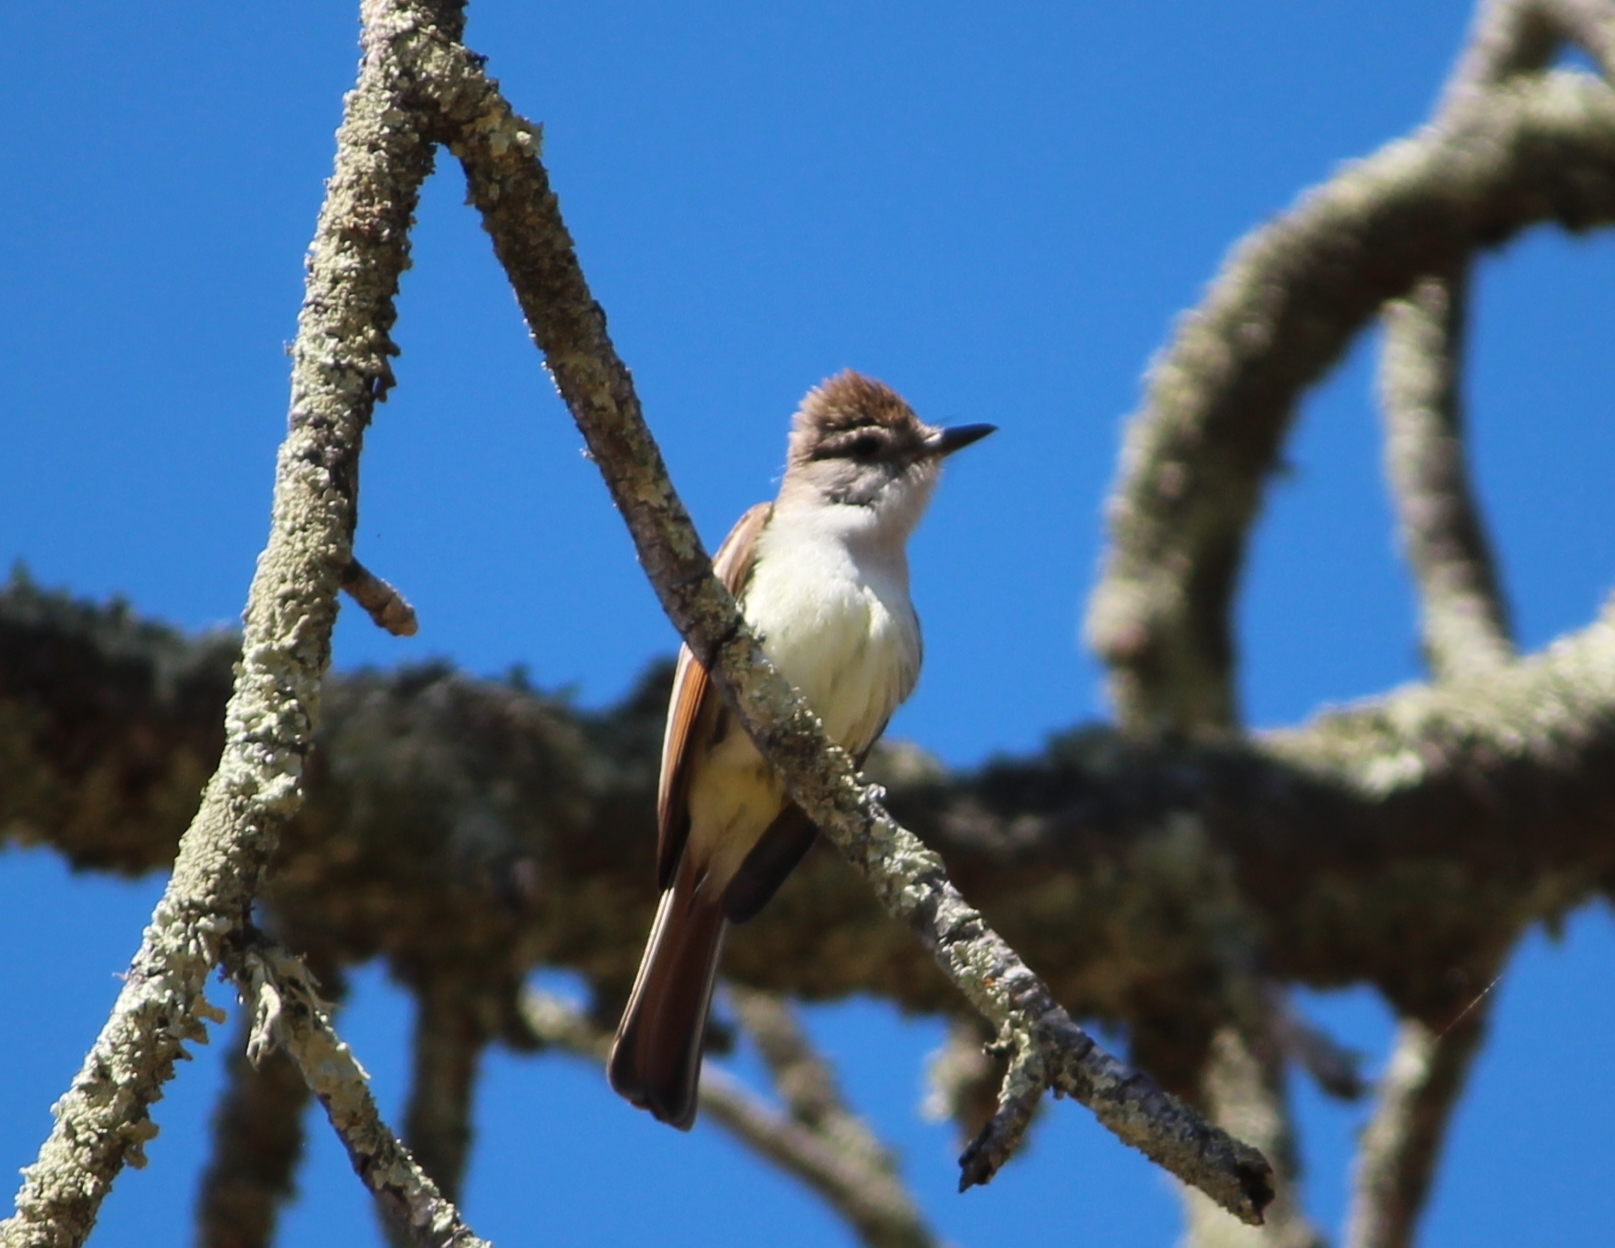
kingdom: Animalia
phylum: Chordata
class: Aves
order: Passeriformes
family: Tyrannidae
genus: Myiarchus
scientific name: Myiarchus cinerascens
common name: Ash-throated flycatcher
